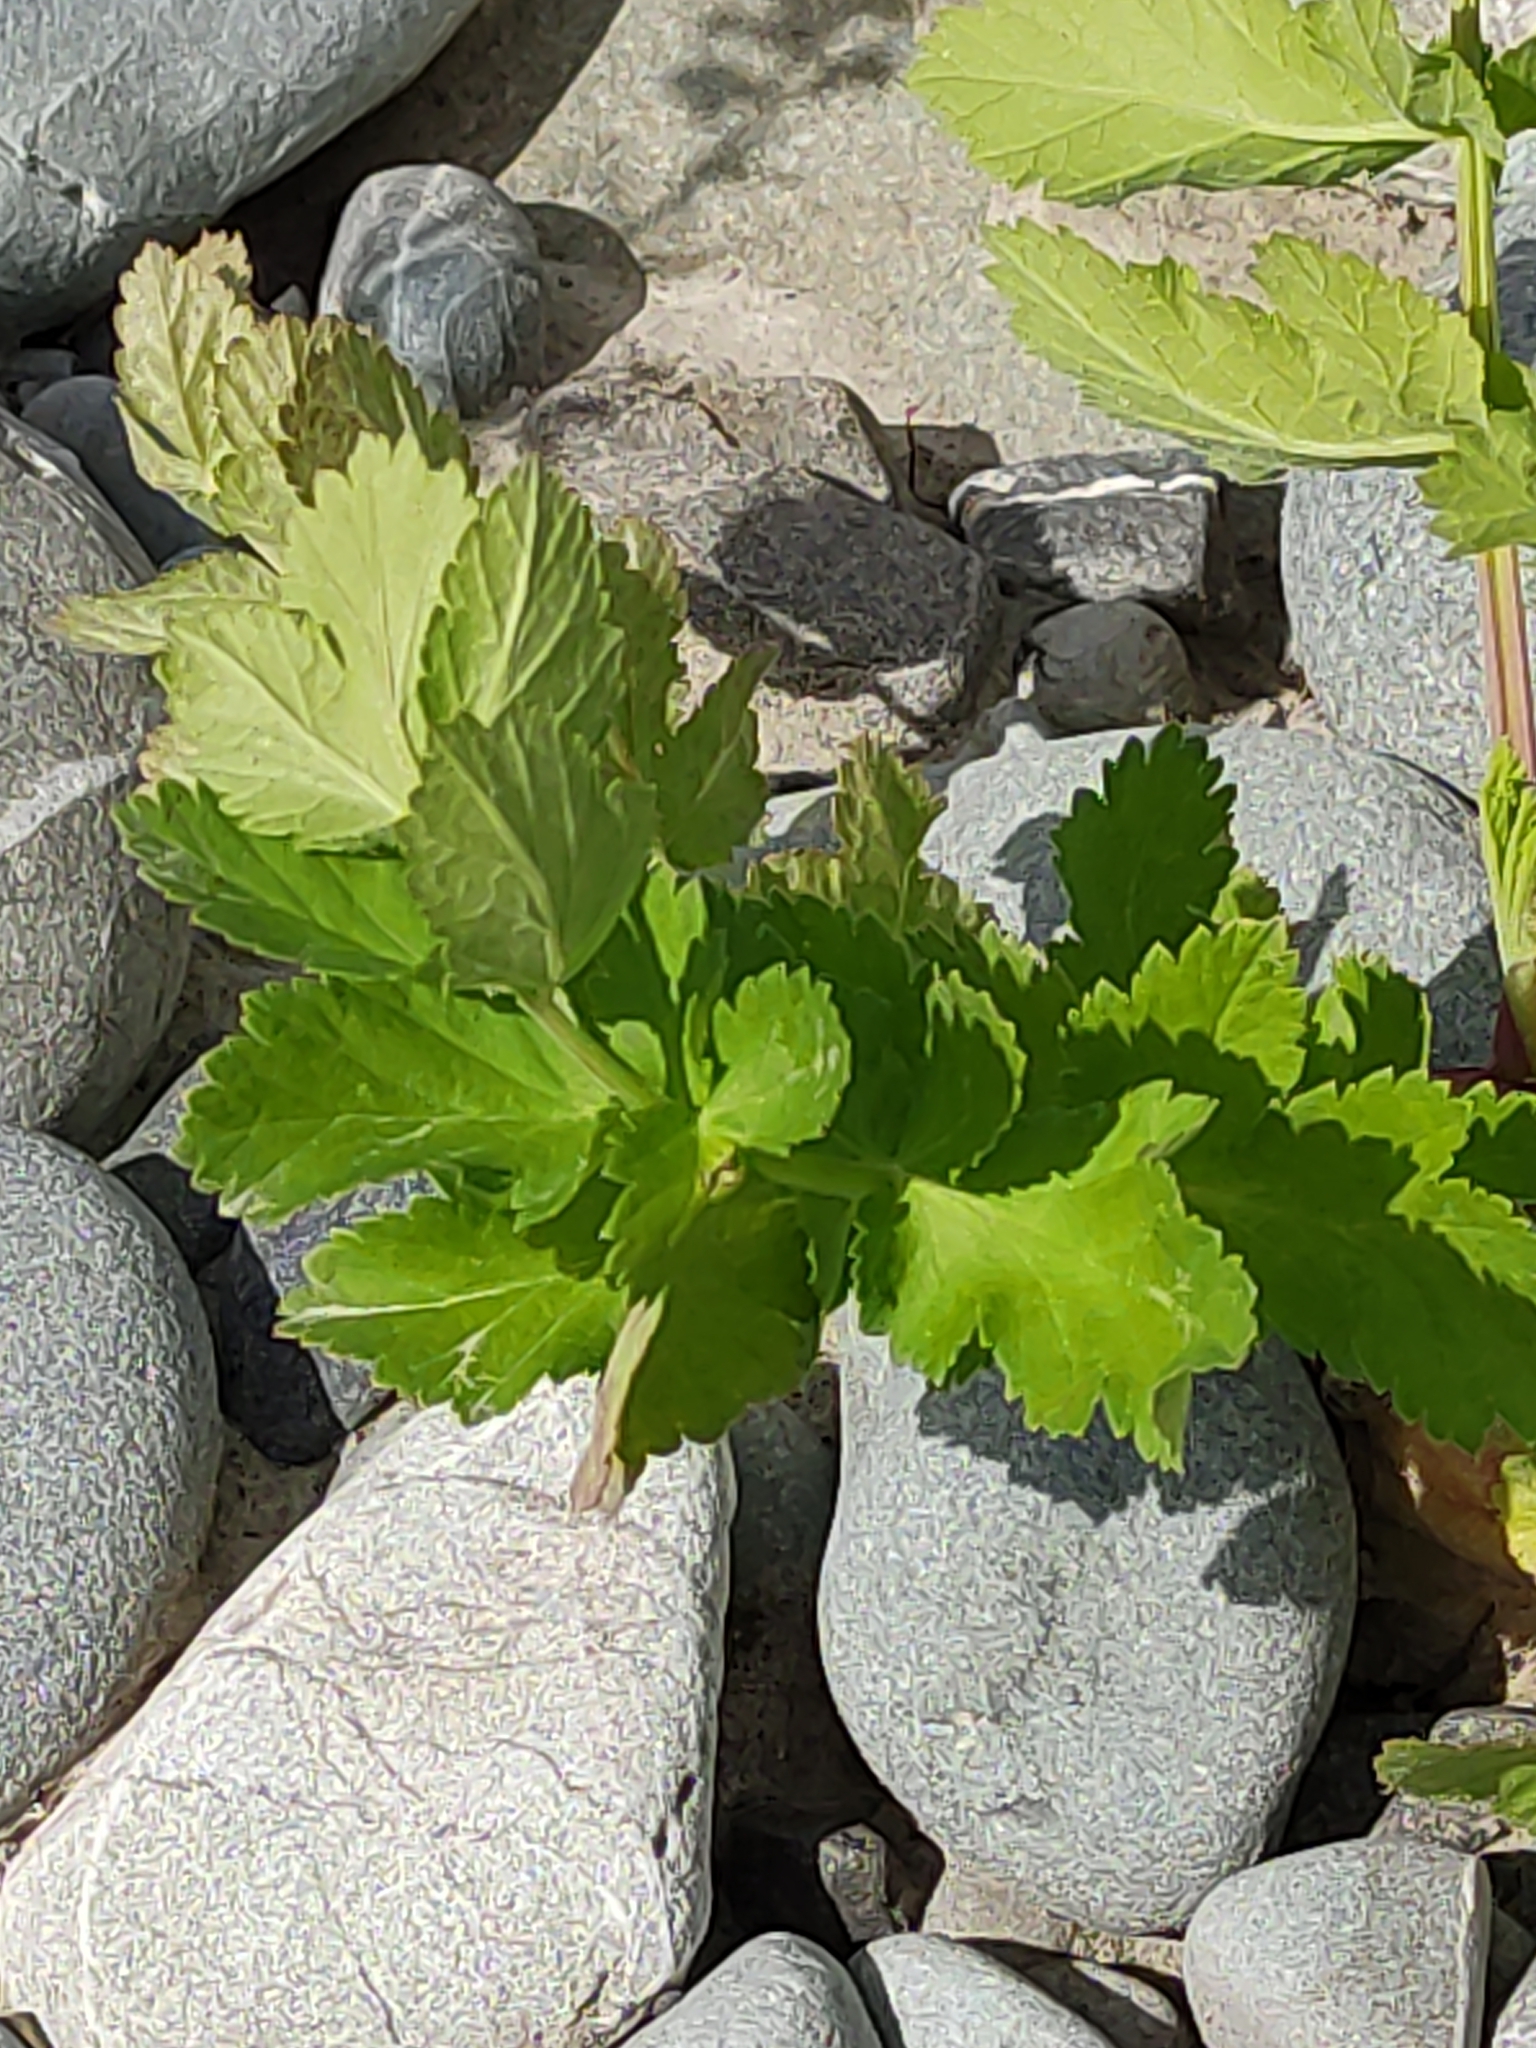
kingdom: Plantae
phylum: Tracheophyta
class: Magnoliopsida
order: Apiales
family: Apiaceae
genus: Pastinaca
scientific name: Pastinaca sativa
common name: Wild parsnip
